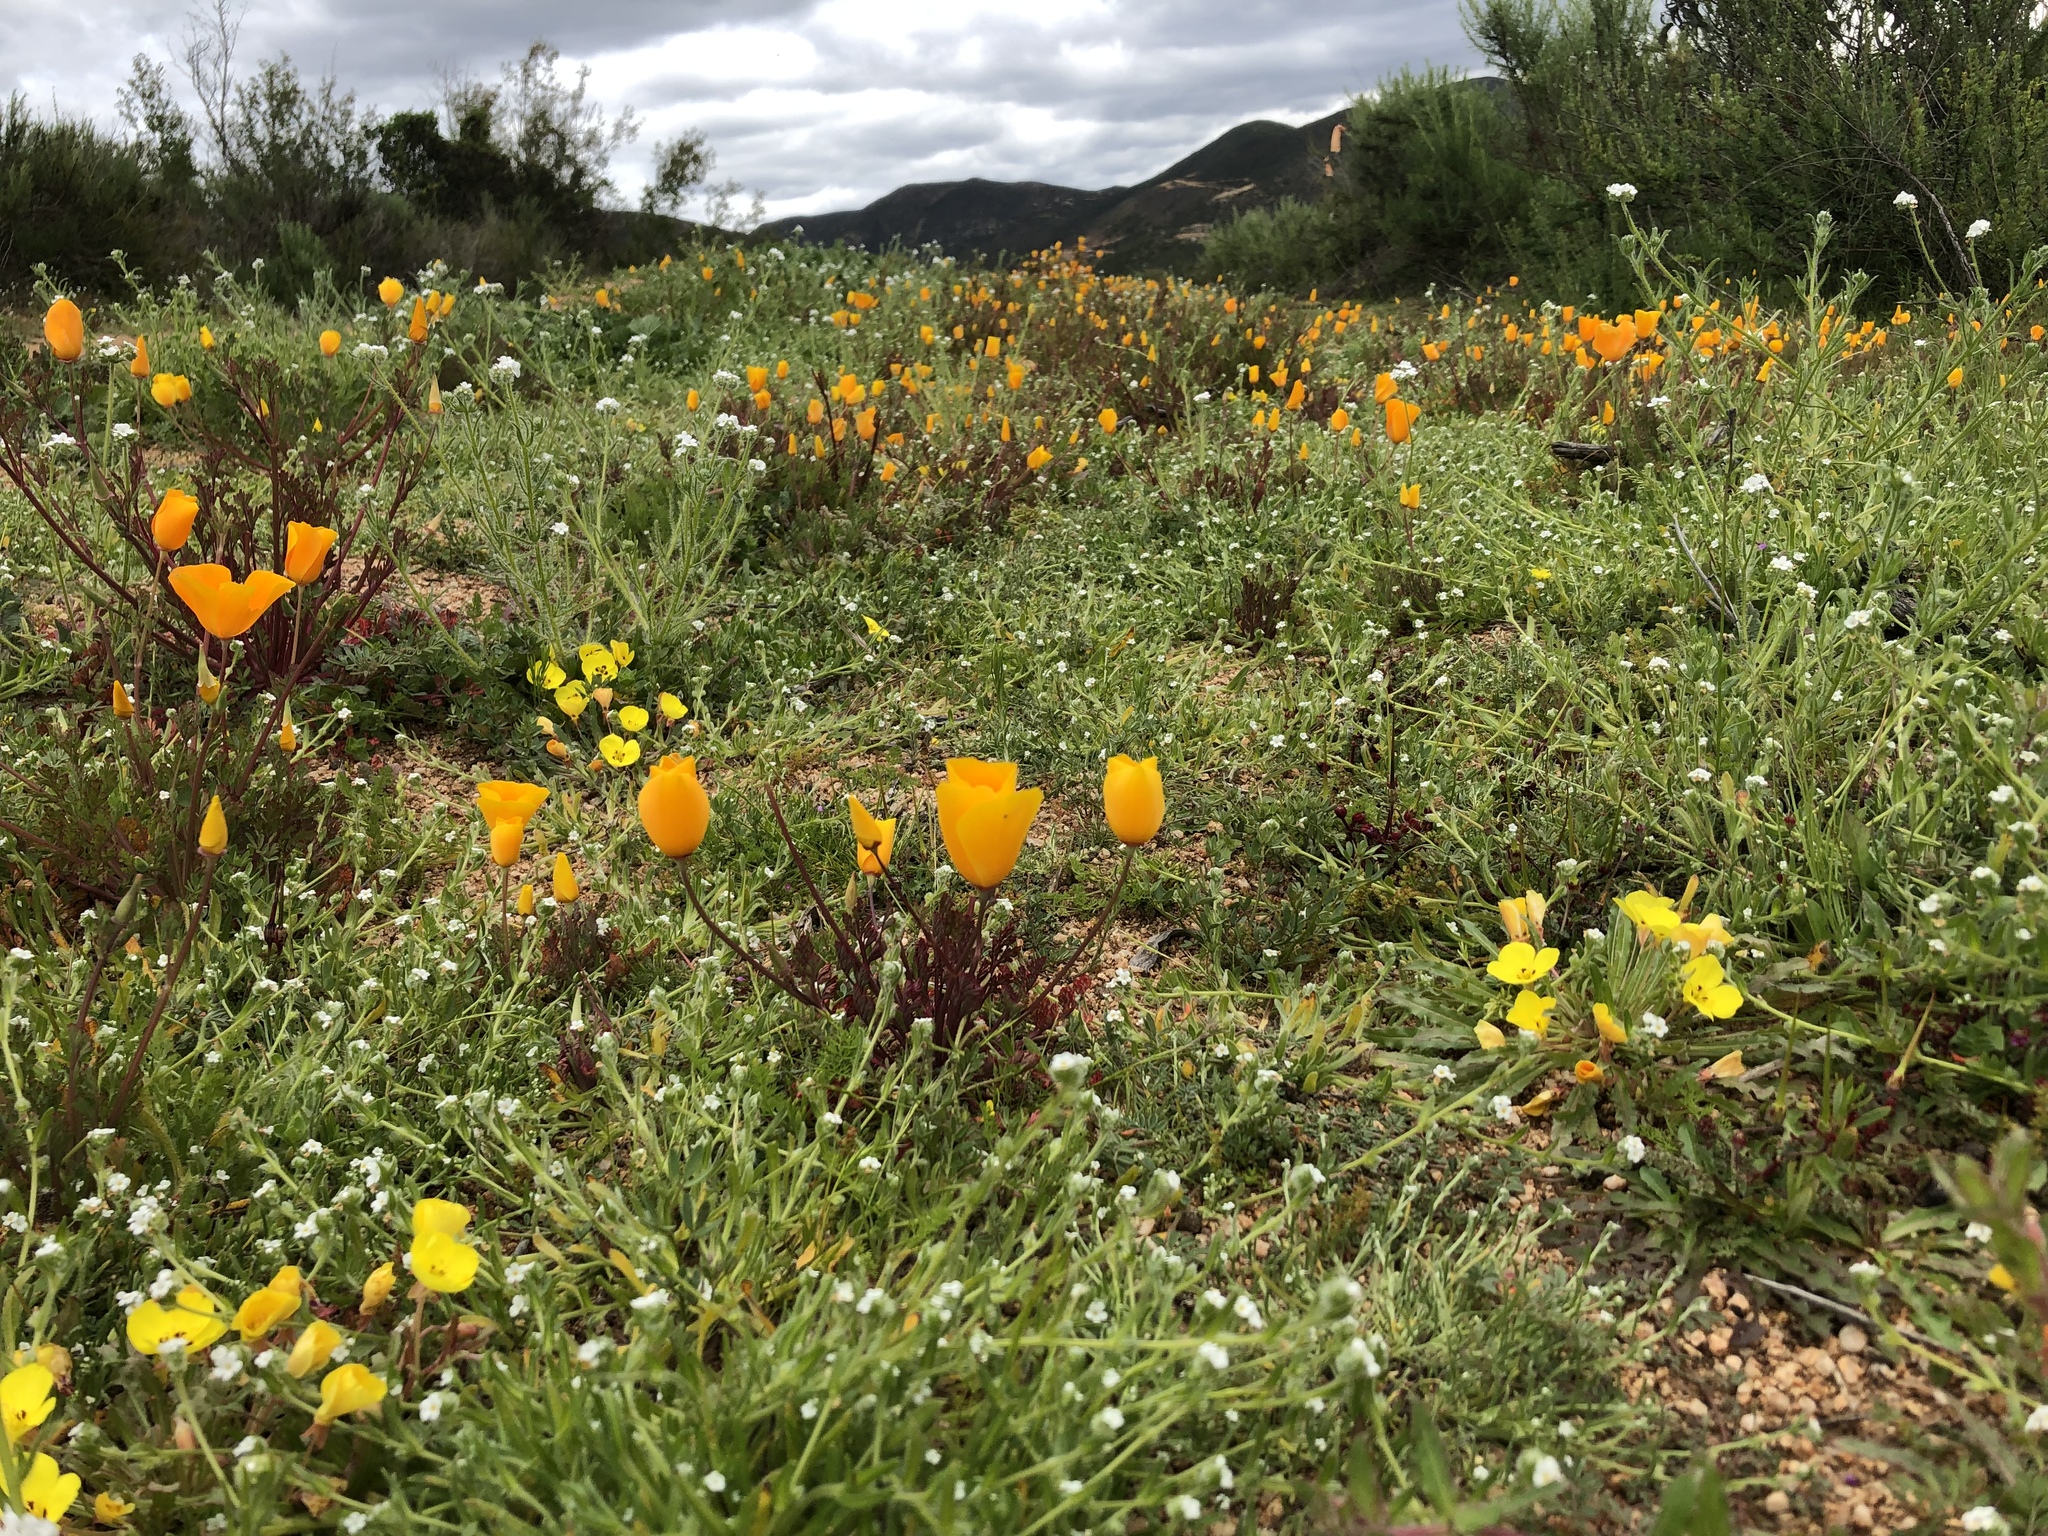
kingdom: Plantae
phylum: Tracheophyta
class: Magnoliopsida
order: Ranunculales
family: Papaveraceae
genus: Eschscholzia
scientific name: Eschscholzia californica
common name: California poppy
